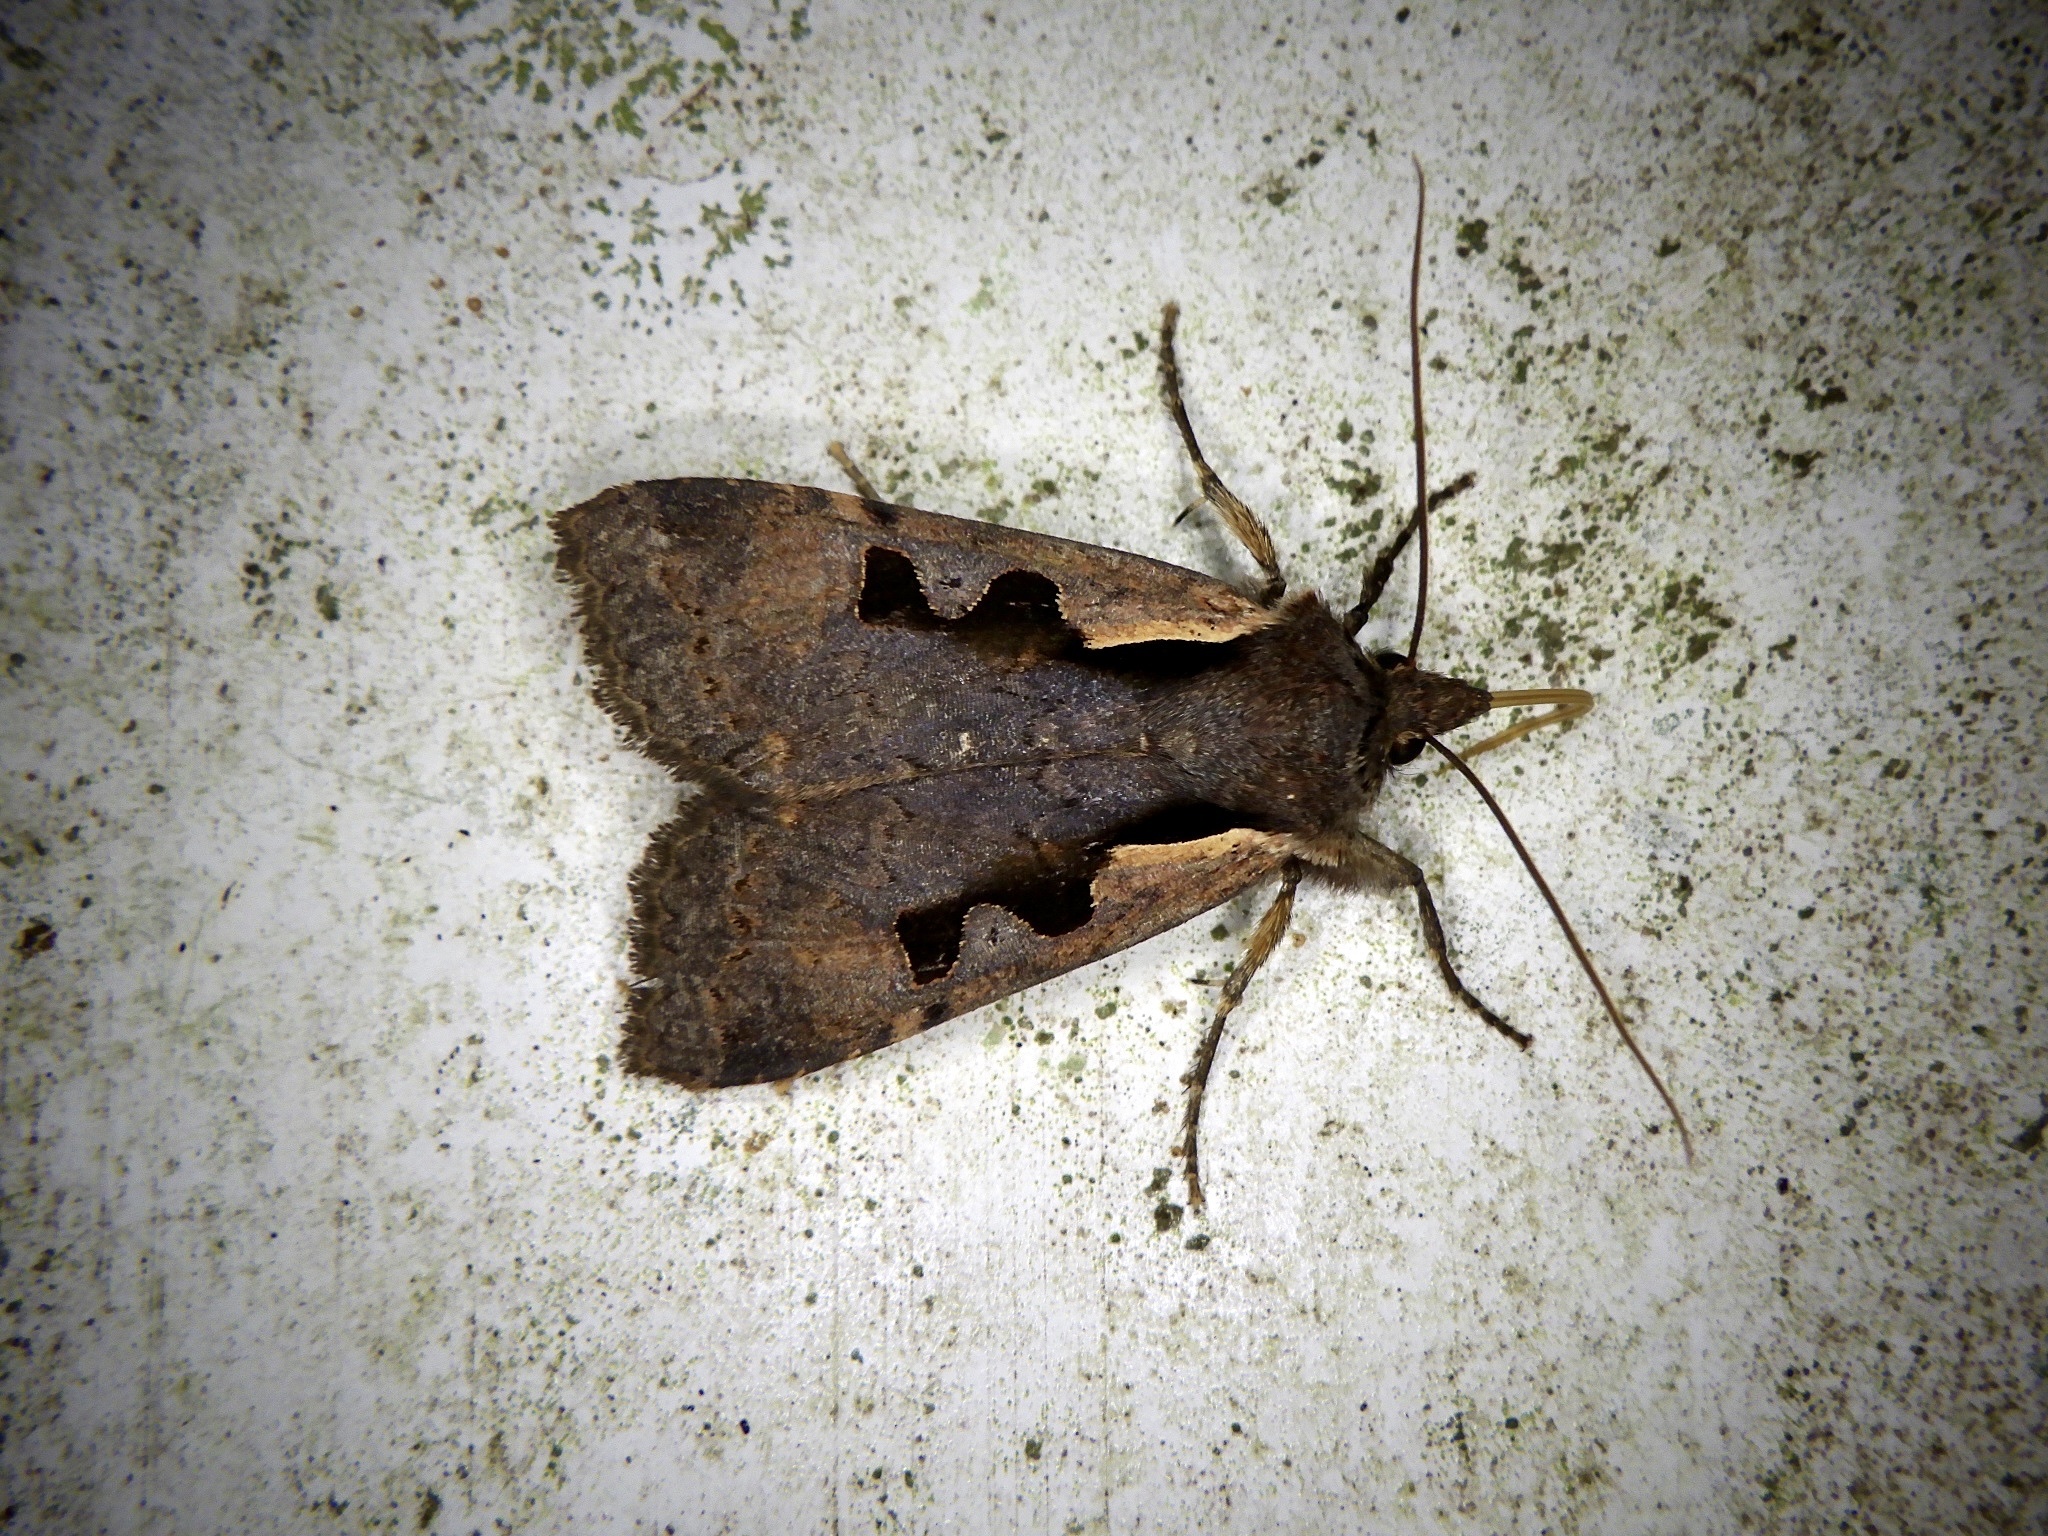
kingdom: Animalia
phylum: Arthropoda
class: Insecta
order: Lepidoptera
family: Noctuidae
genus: Sugitania
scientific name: Sugitania lepida
